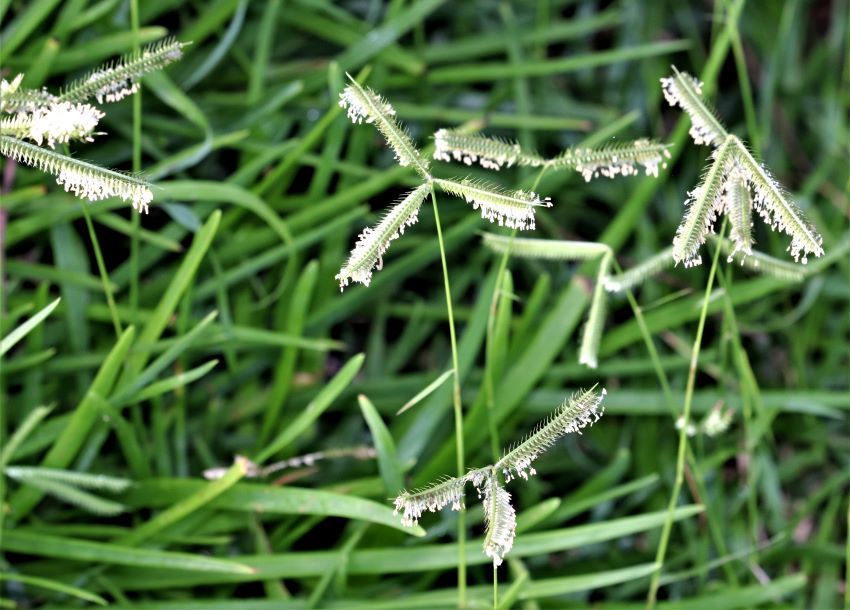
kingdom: Plantae
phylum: Tracheophyta
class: Liliopsida
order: Poales
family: Poaceae
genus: Dactyloctenium
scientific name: Dactyloctenium australe
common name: Durban grass
